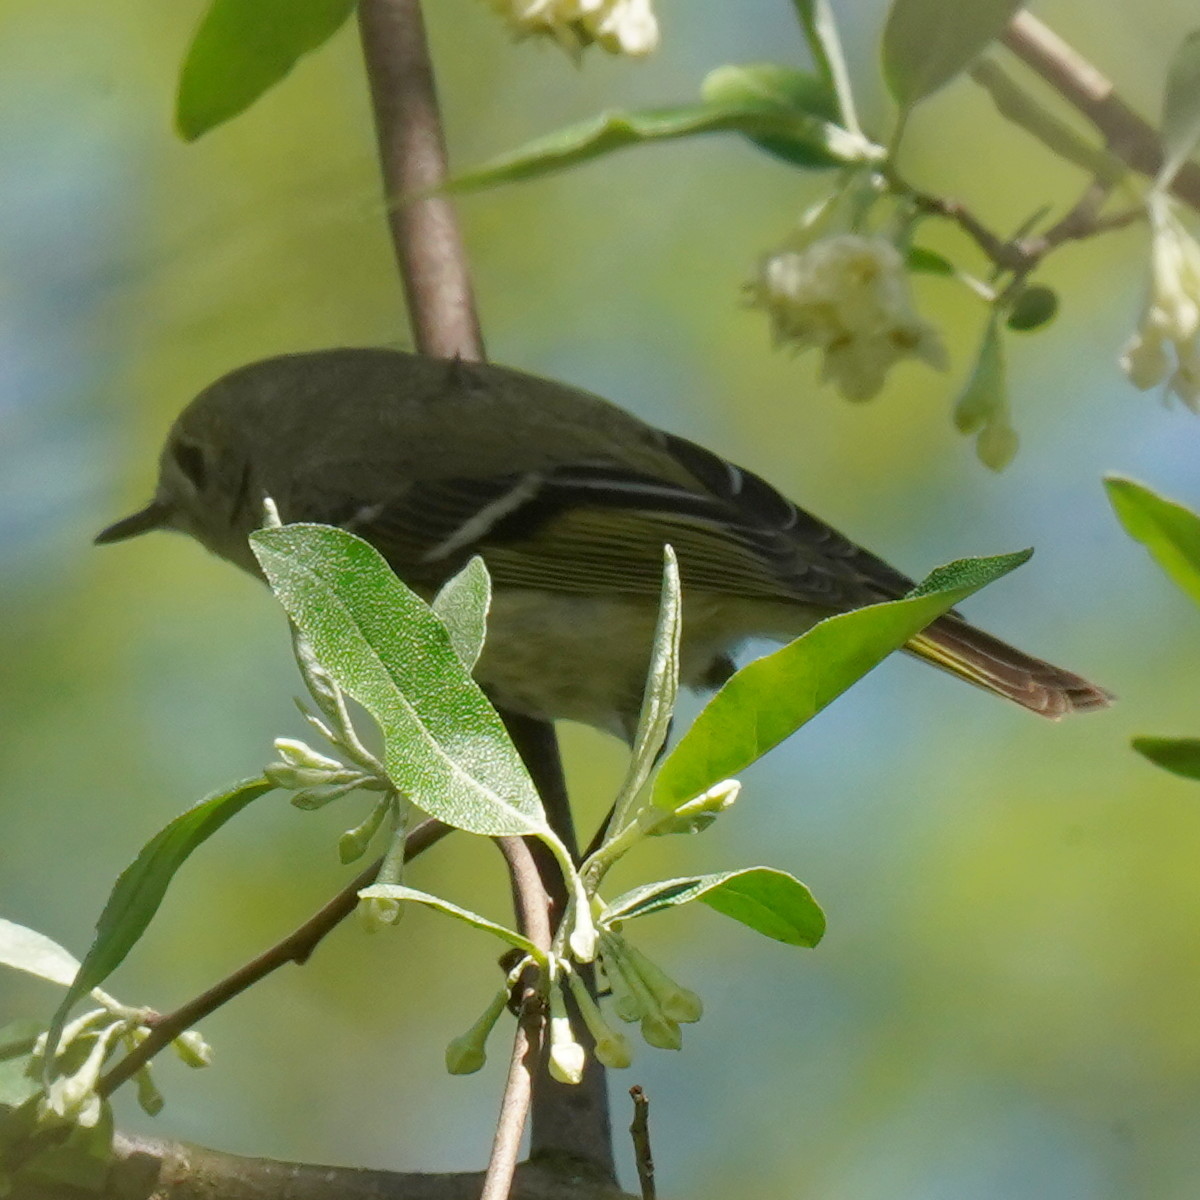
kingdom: Animalia
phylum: Chordata
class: Aves
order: Passeriformes
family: Regulidae
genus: Regulus
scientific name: Regulus calendula
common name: Ruby-crowned kinglet
